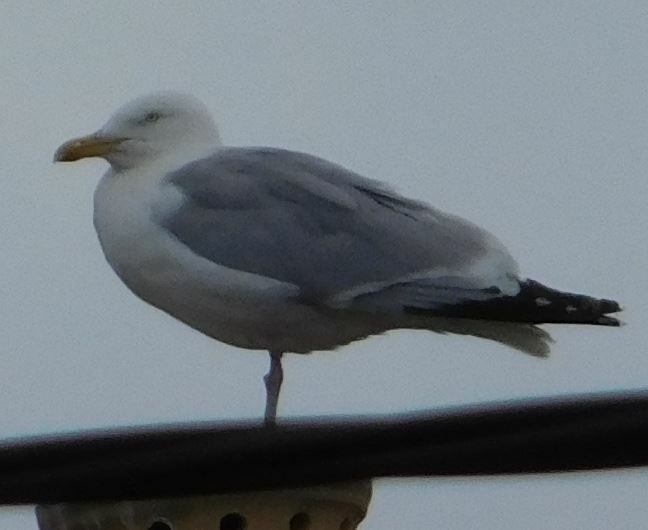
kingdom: Animalia
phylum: Chordata
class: Aves
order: Charadriiformes
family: Laridae
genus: Larus
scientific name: Larus argentatus
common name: Herring gull
